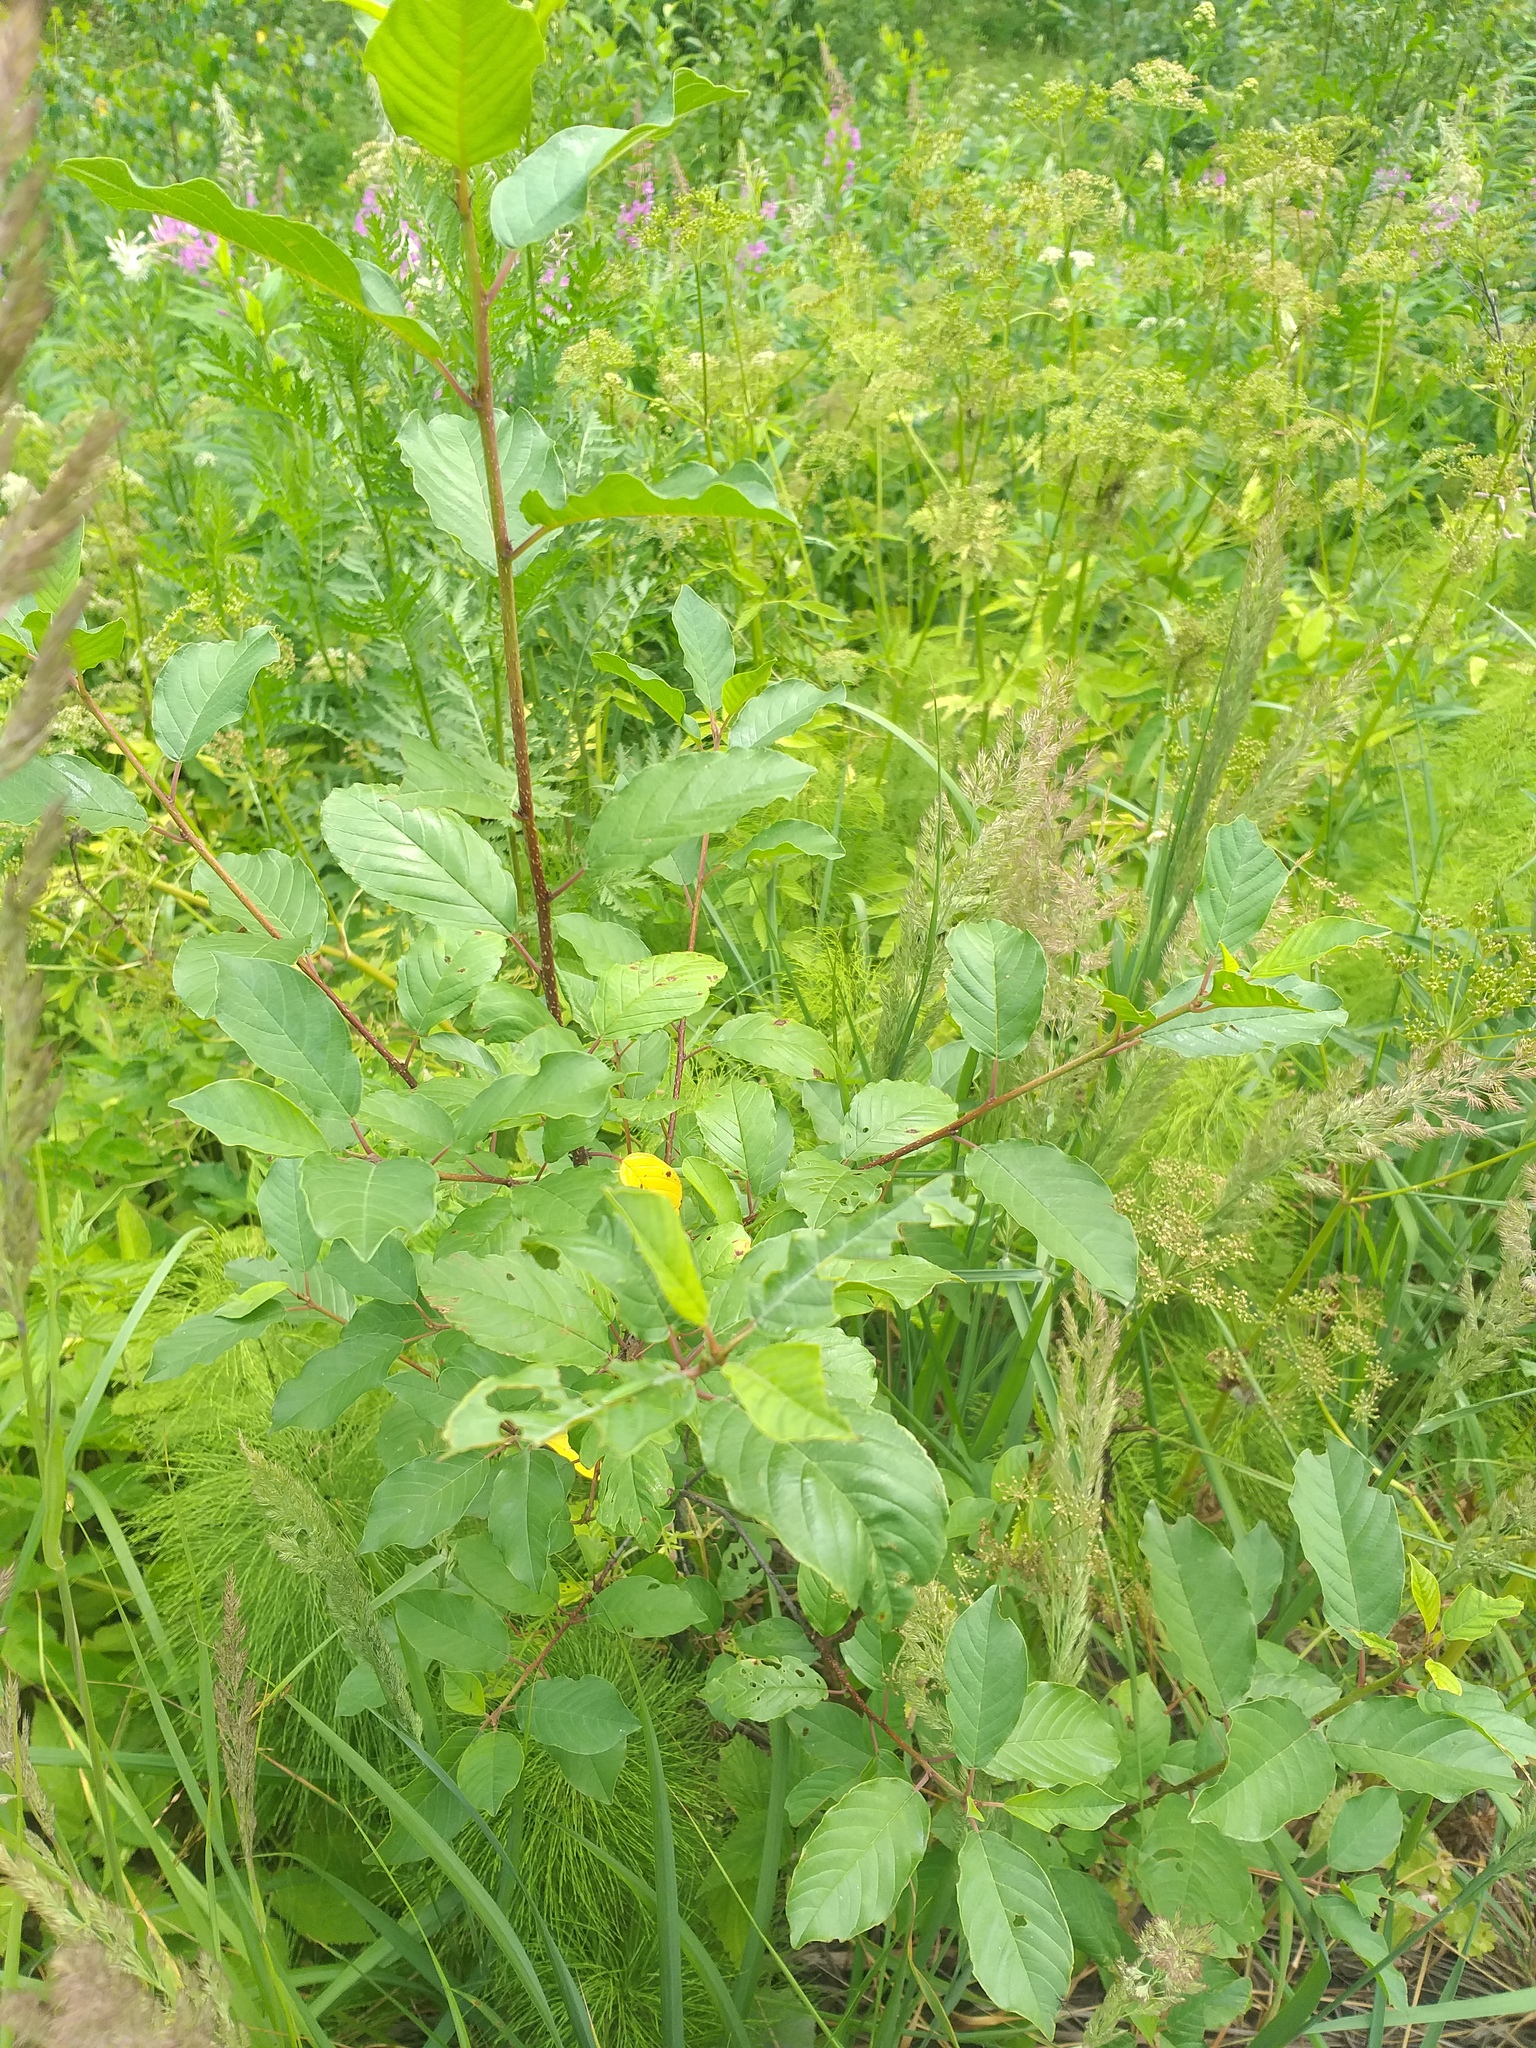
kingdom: Plantae
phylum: Tracheophyta
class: Magnoliopsida
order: Rosales
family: Rhamnaceae
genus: Frangula
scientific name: Frangula alnus
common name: Alder buckthorn
